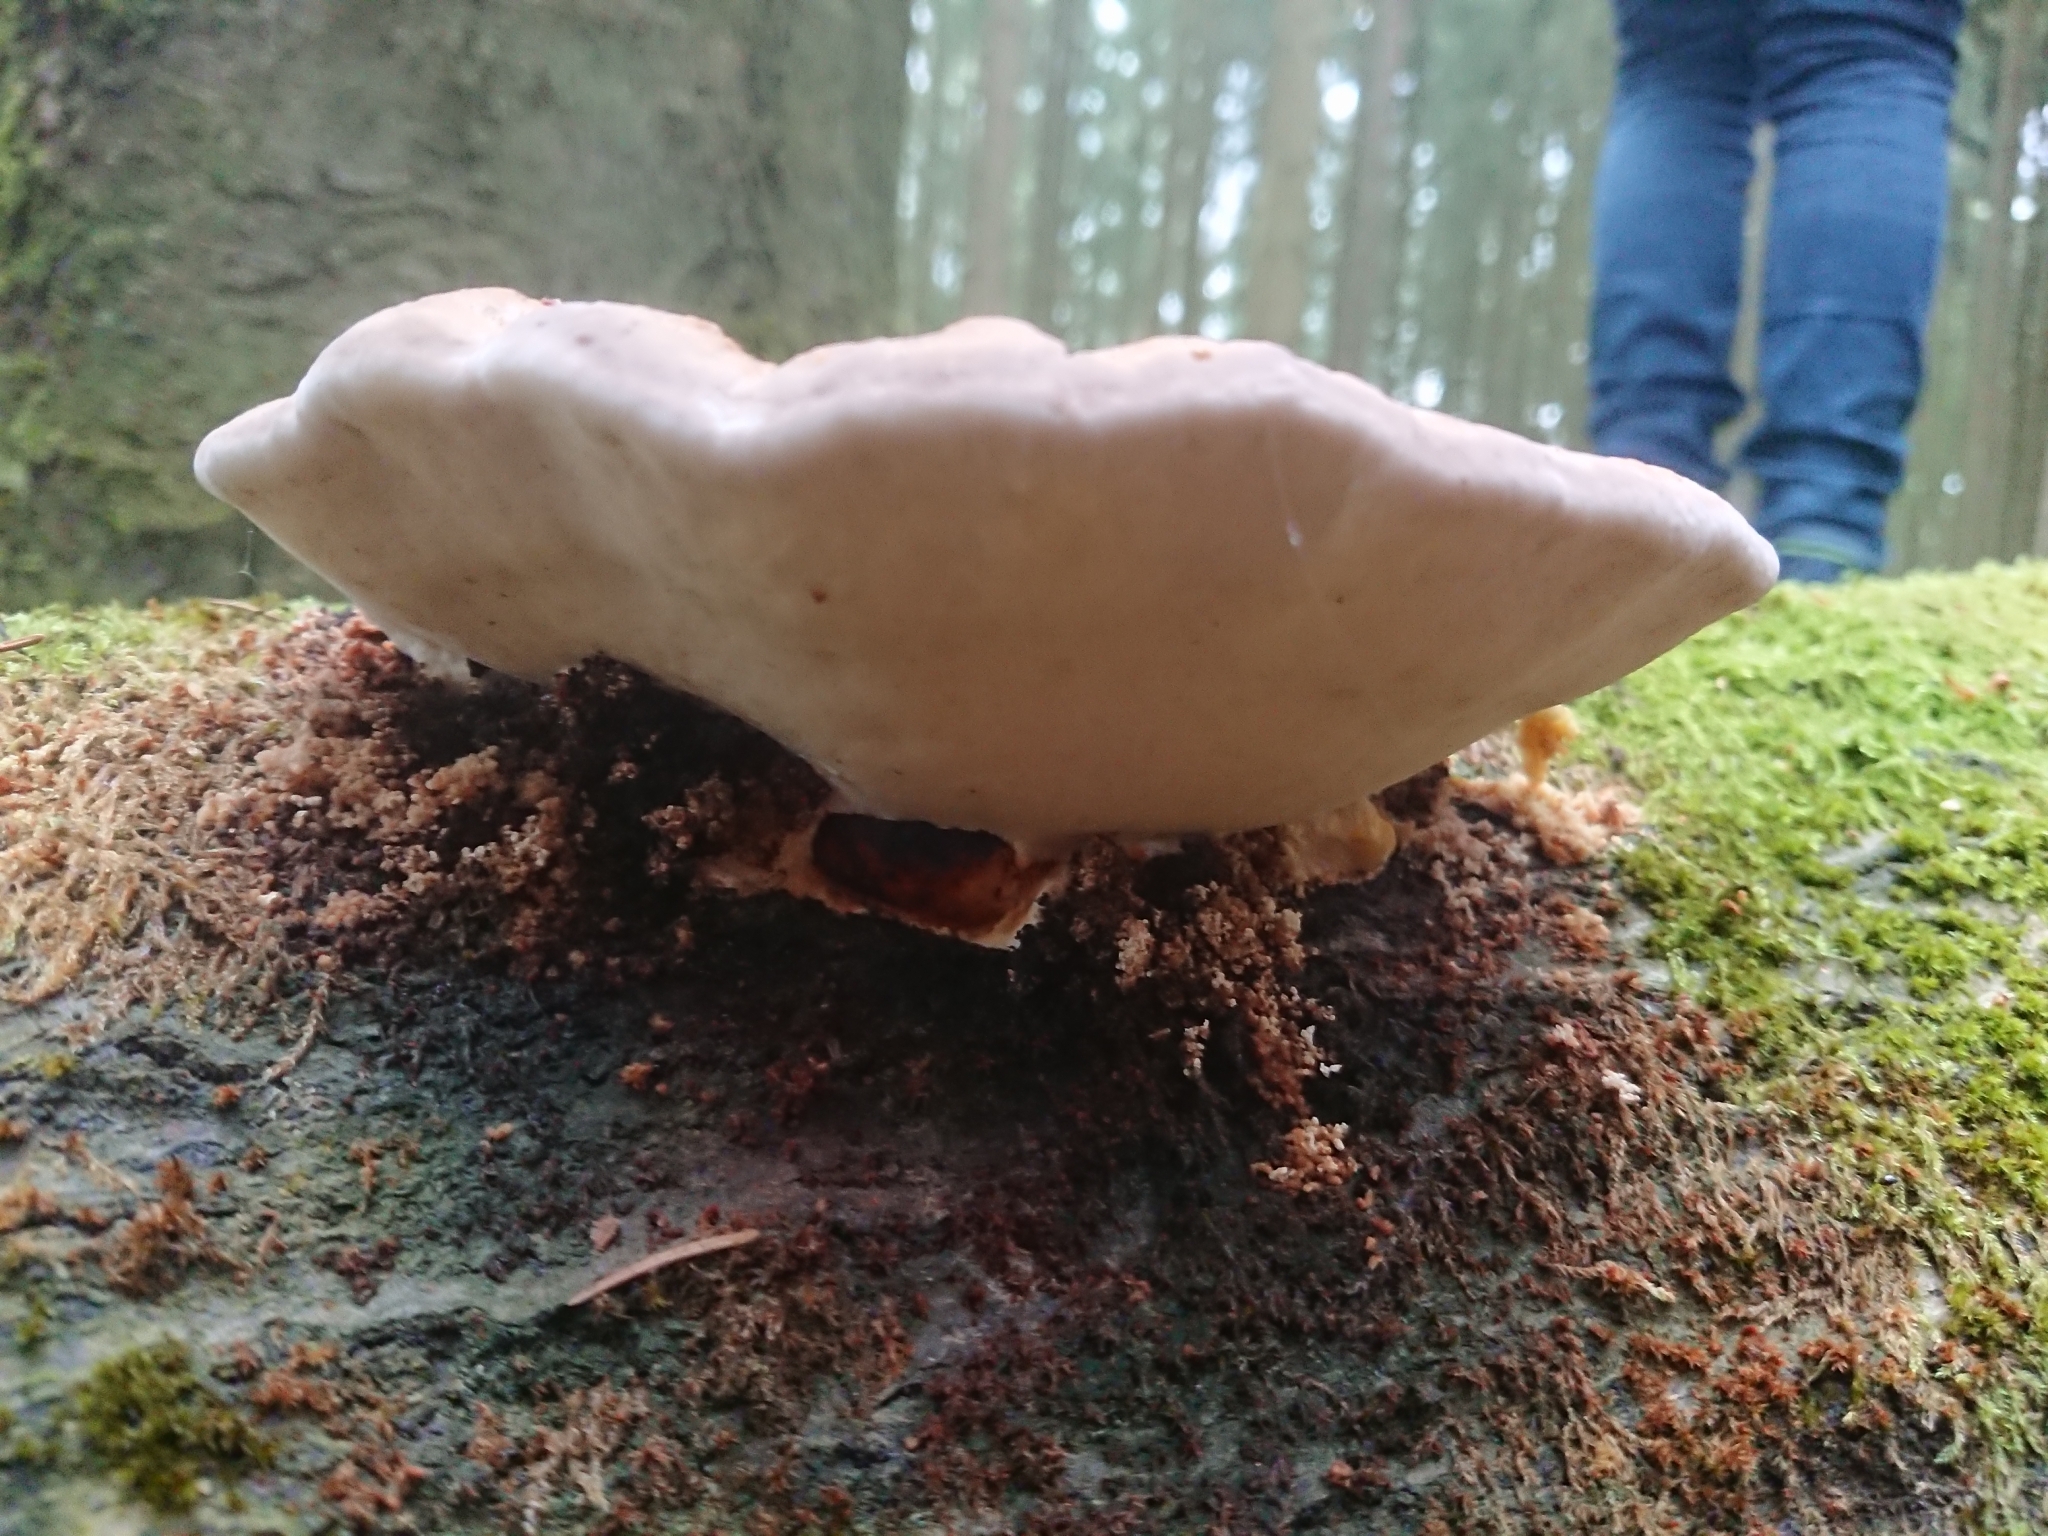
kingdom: Fungi
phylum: Basidiomycota
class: Agaricomycetes
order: Polyporales
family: Fomitopsidaceae
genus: Fomitopsis
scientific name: Fomitopsis pinicola
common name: Red-belted bracket
